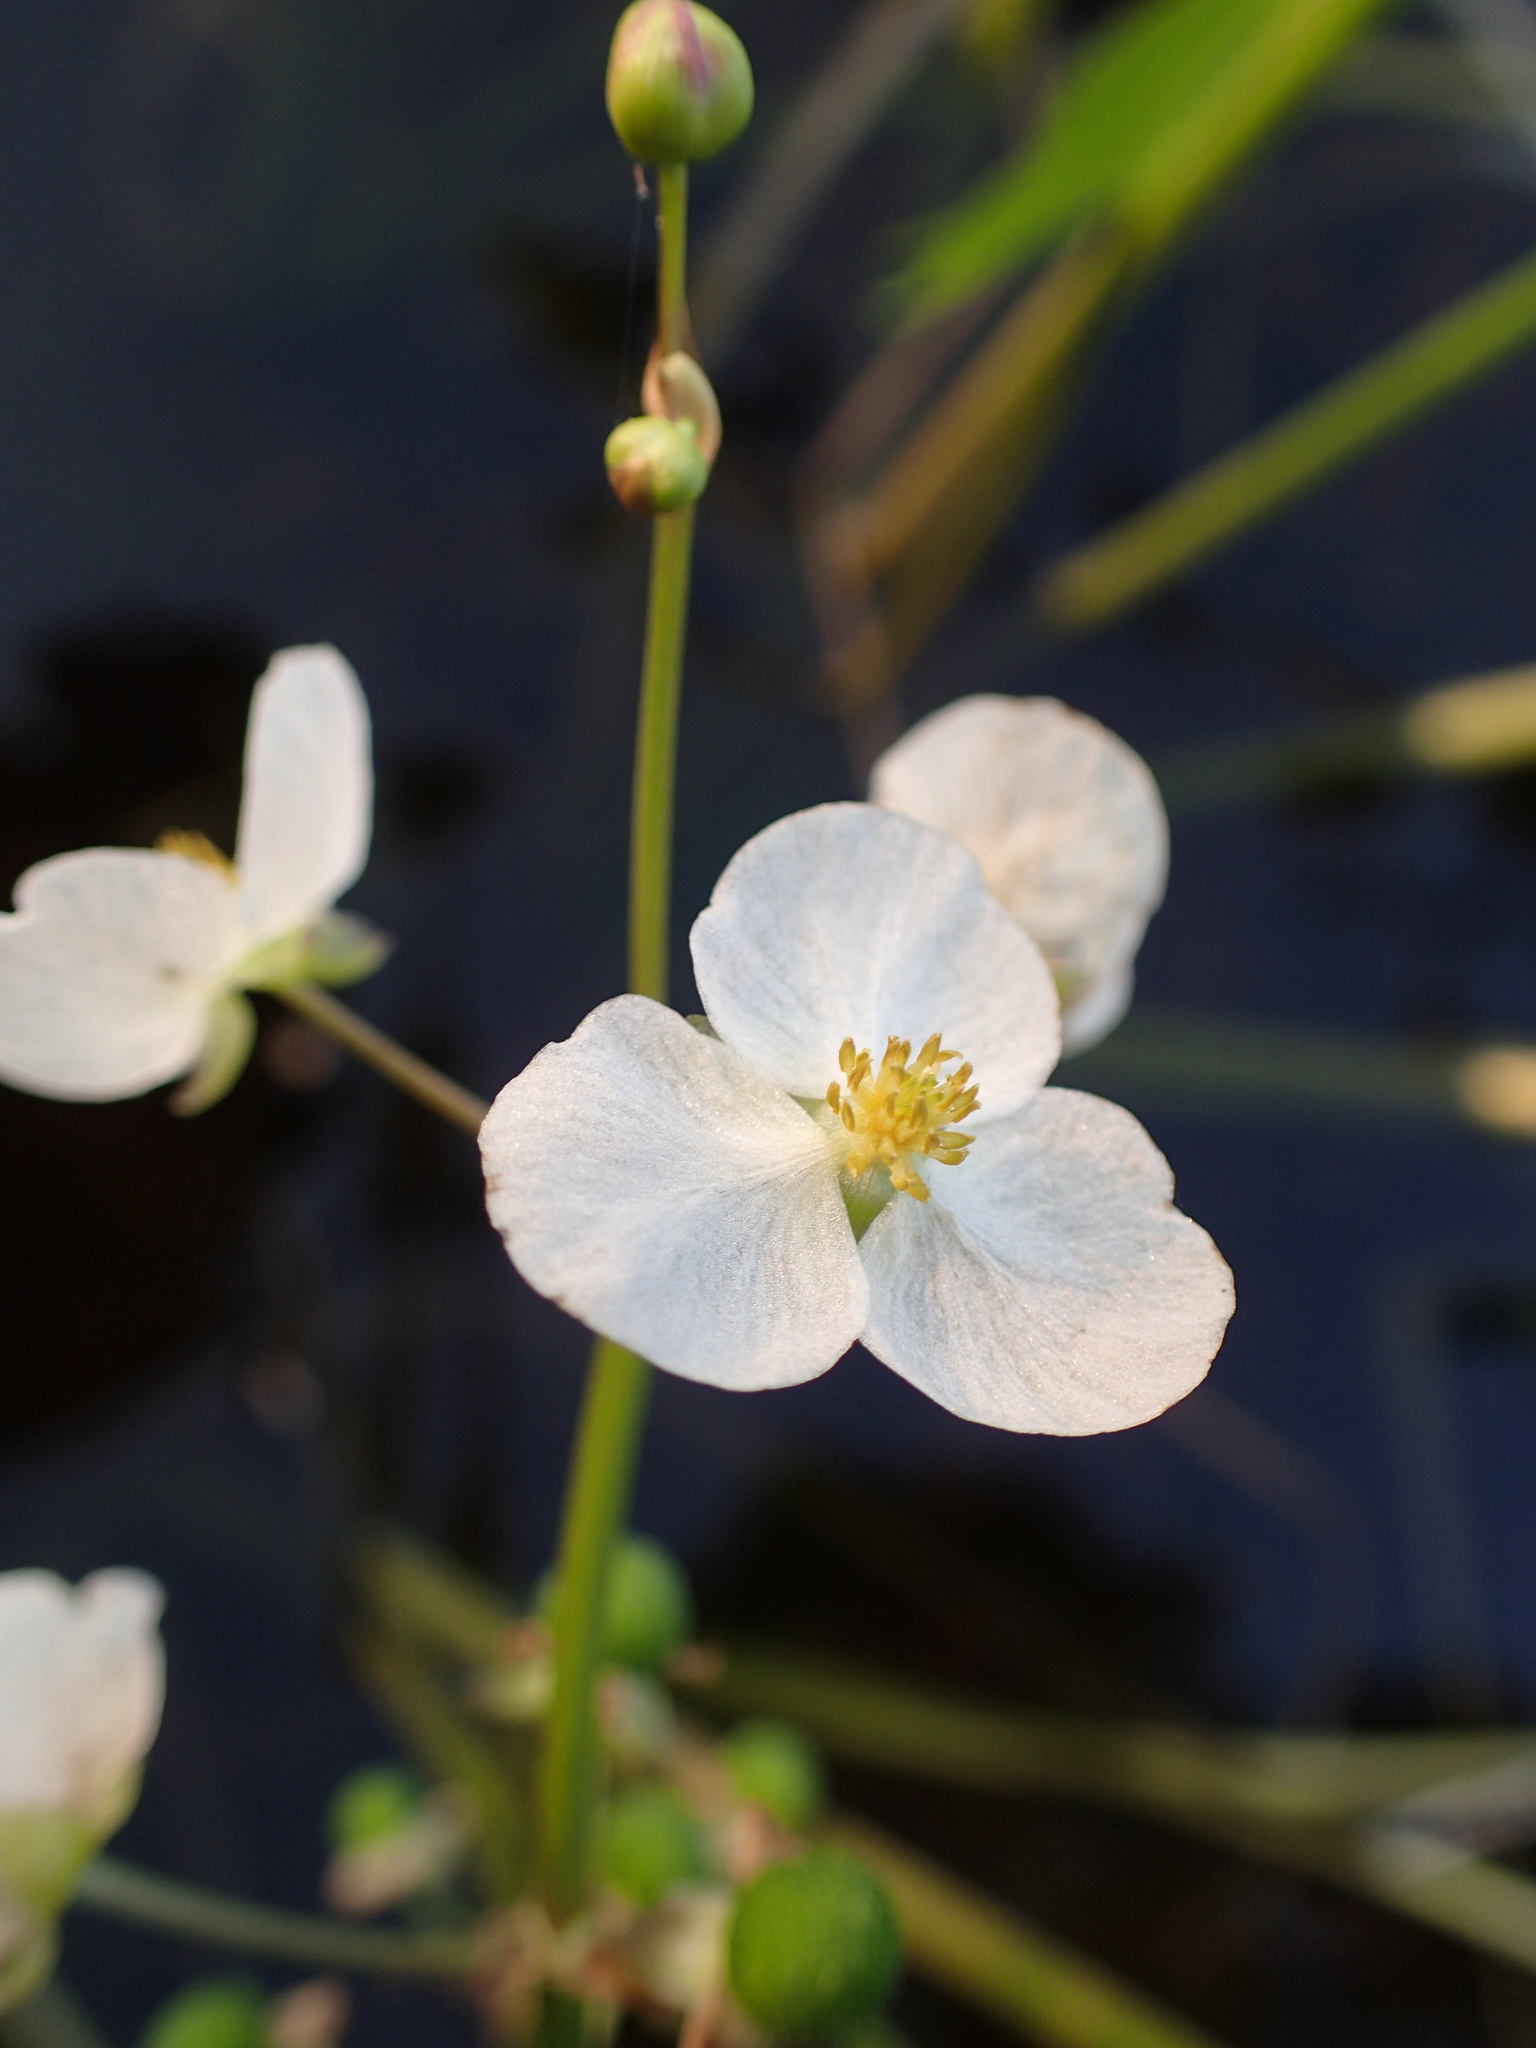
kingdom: Plantae
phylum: Tracheophyta
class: Liliopsida
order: Alismatales
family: Alismataceae
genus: Sagittaria
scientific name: Sagittaria cuneata
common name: Northern arrowhead
